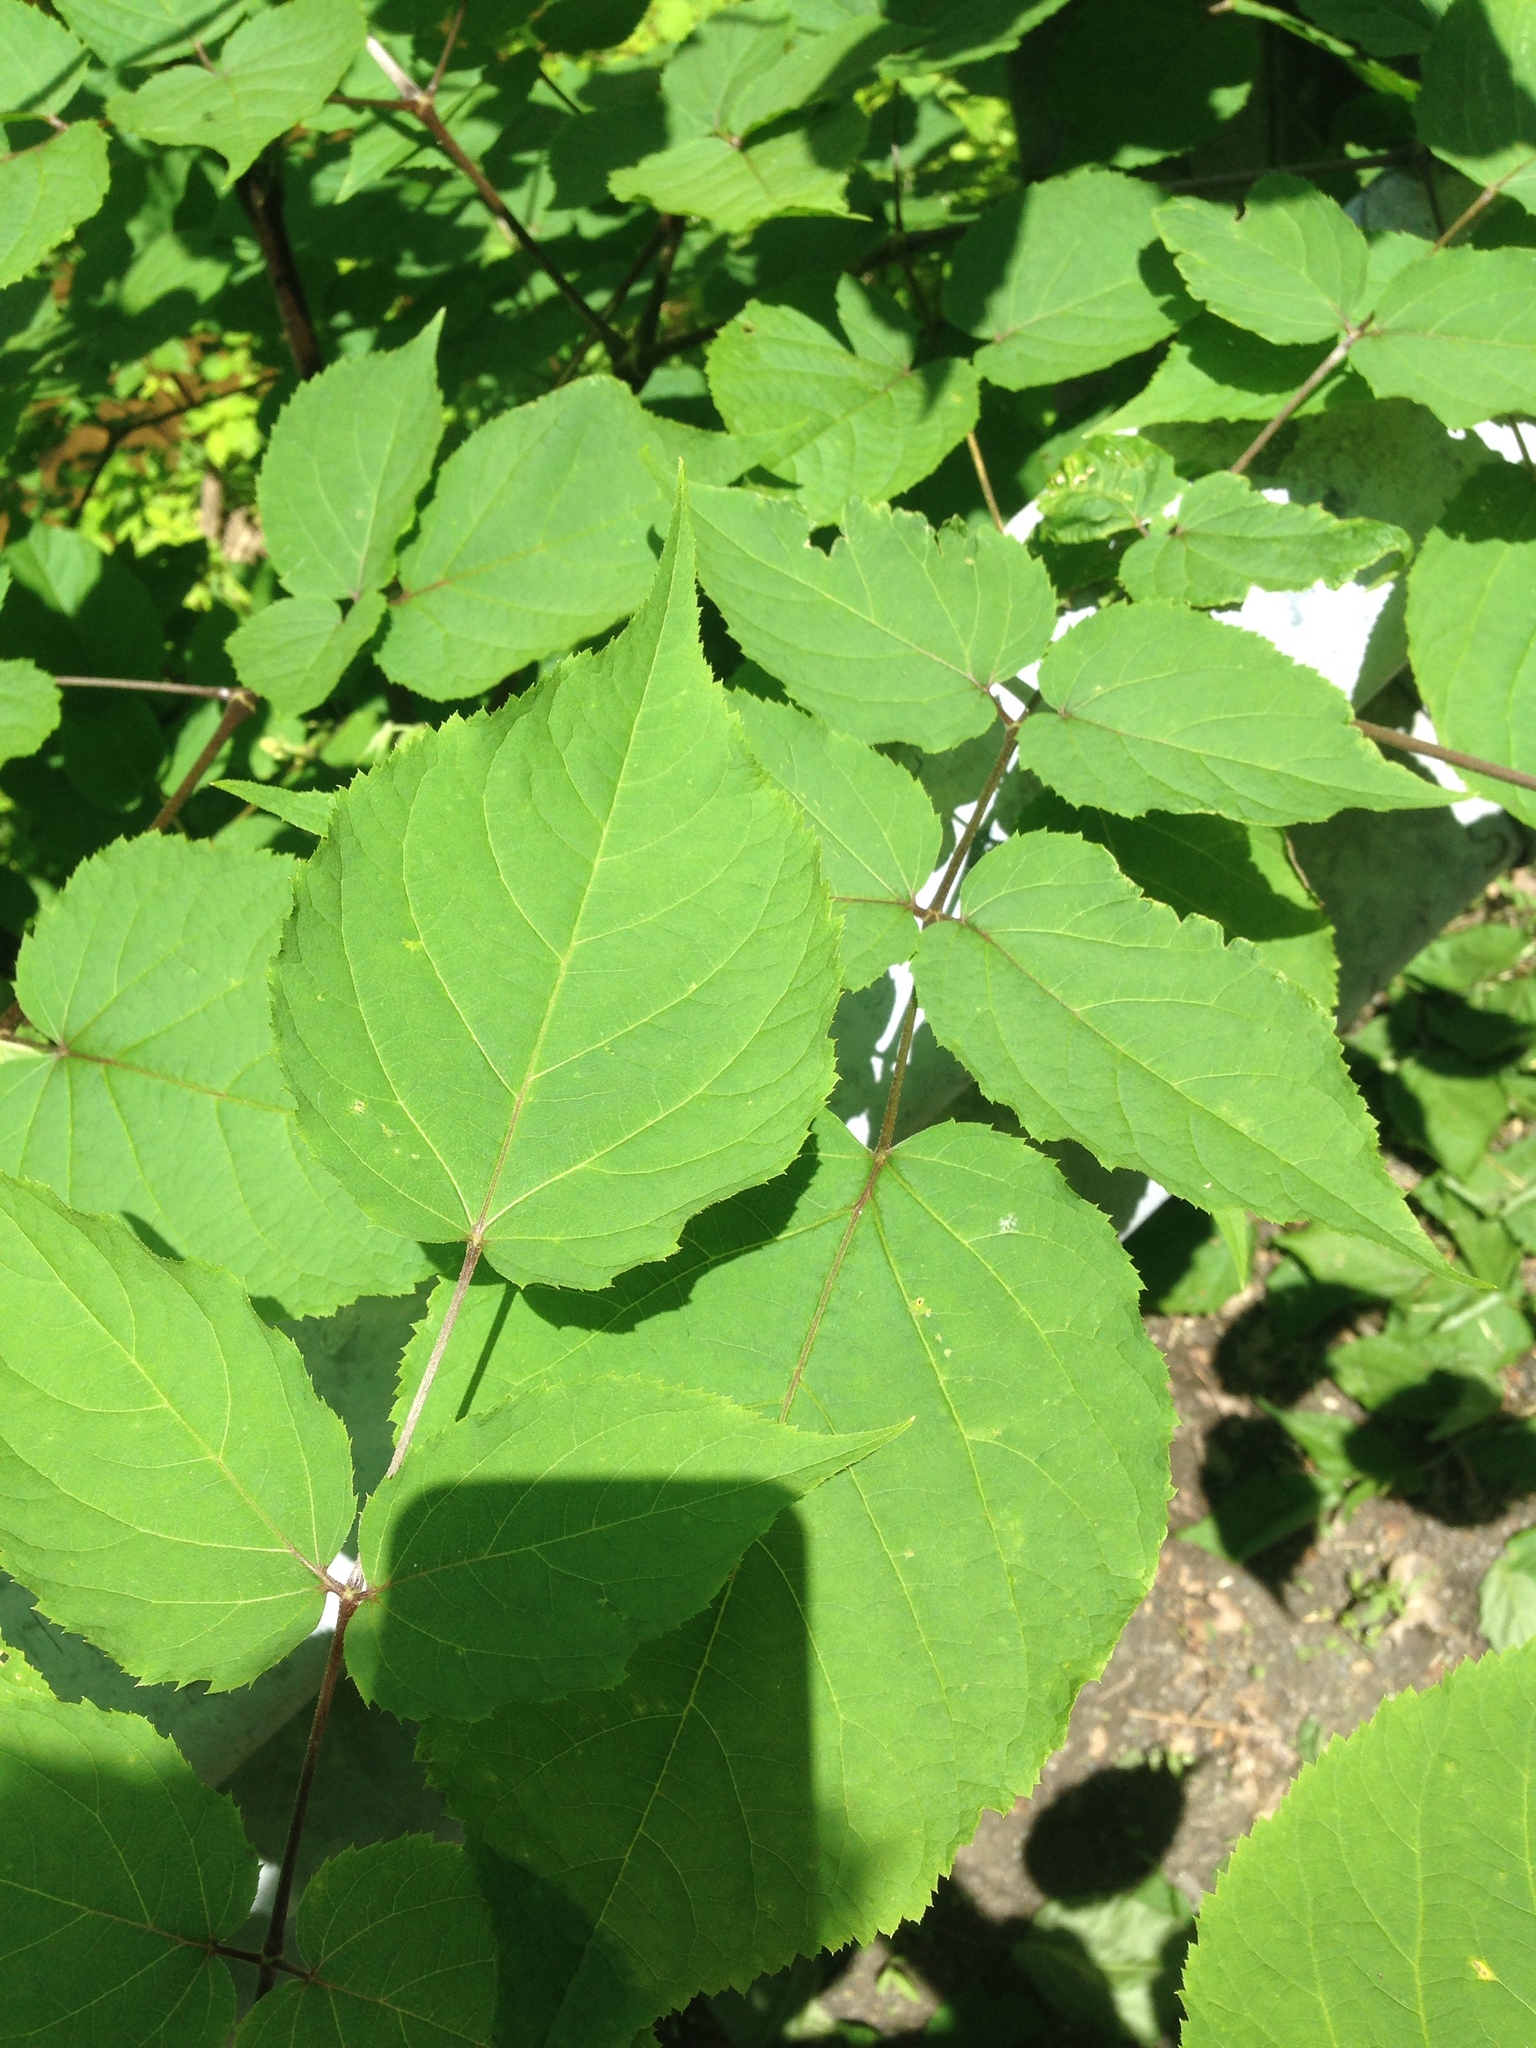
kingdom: Plantae
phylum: Tracheophyta
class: Magnoliopsida
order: Apiales
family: Araliaceae
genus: Aralia
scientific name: Aralia racemosa
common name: American-spikenard
